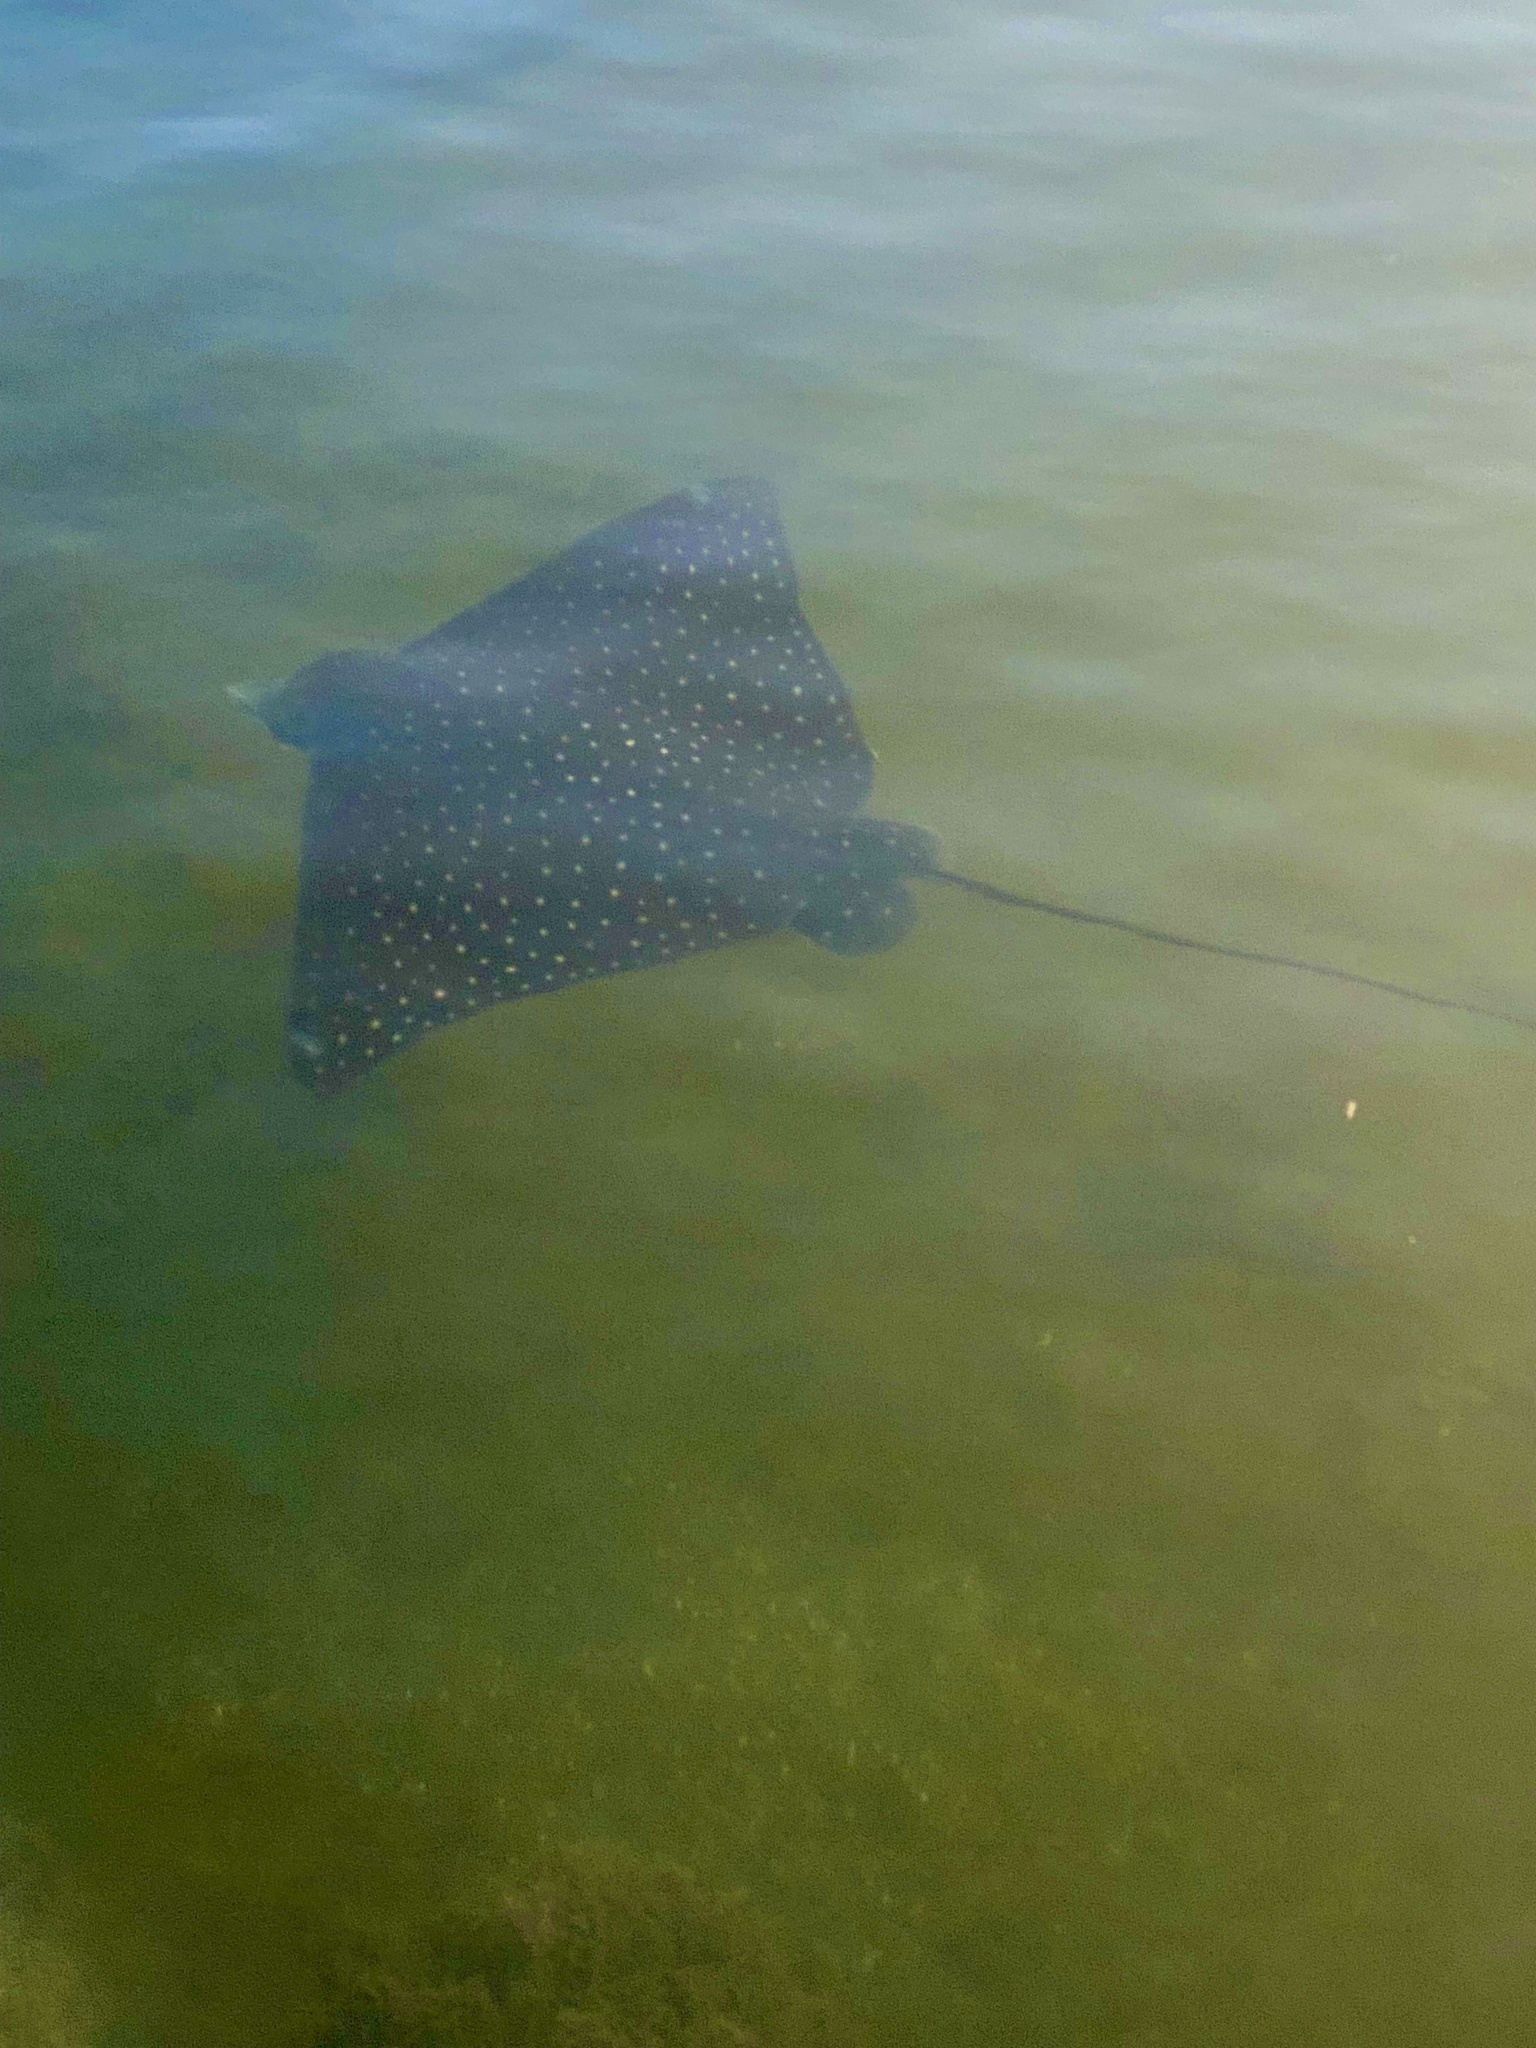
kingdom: Animalia
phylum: Chordata
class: Elasmobranchii
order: Myliobatiformes
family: Myliobatidae
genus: Aetobatus
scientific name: Aetobatus narinari
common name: Spotted eagle ray
